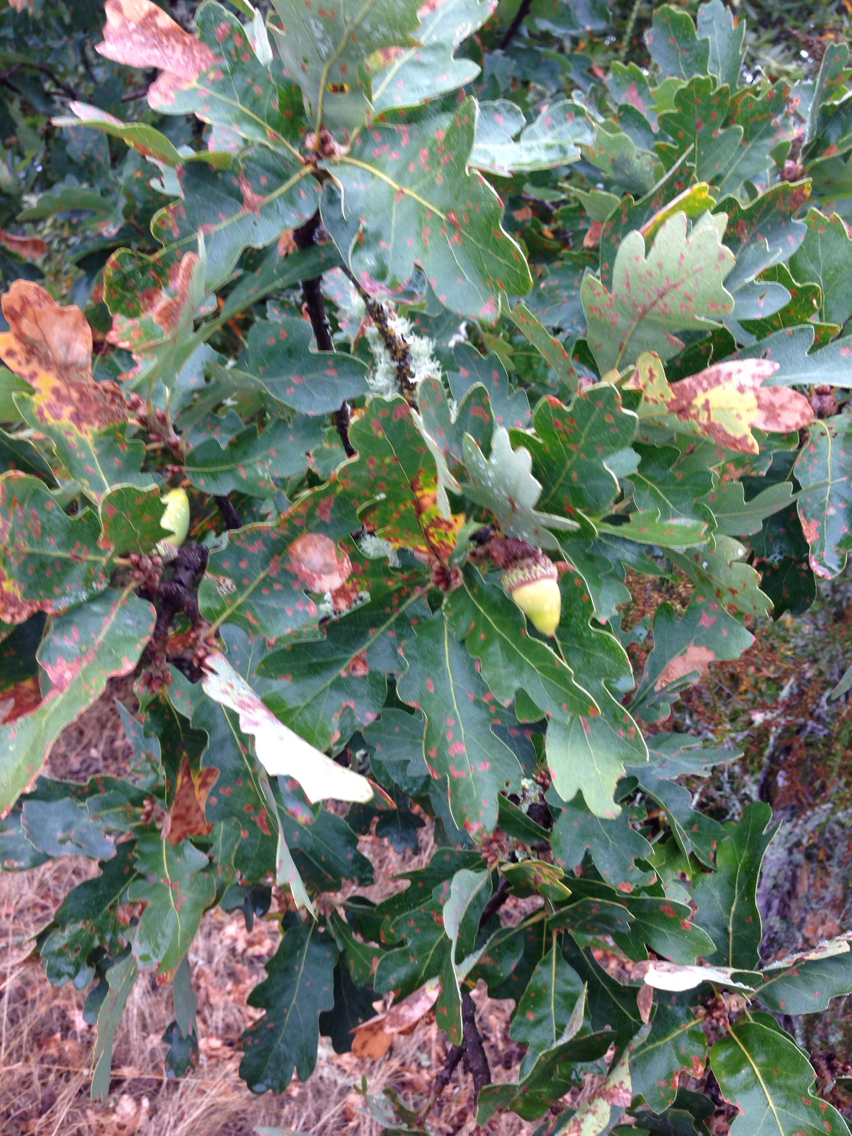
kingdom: Plantae
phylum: Tracheophyta
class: Magnoliopsida
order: Fagales
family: Fagaceae
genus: Quercus
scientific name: Quercus lobata
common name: Valley oak
